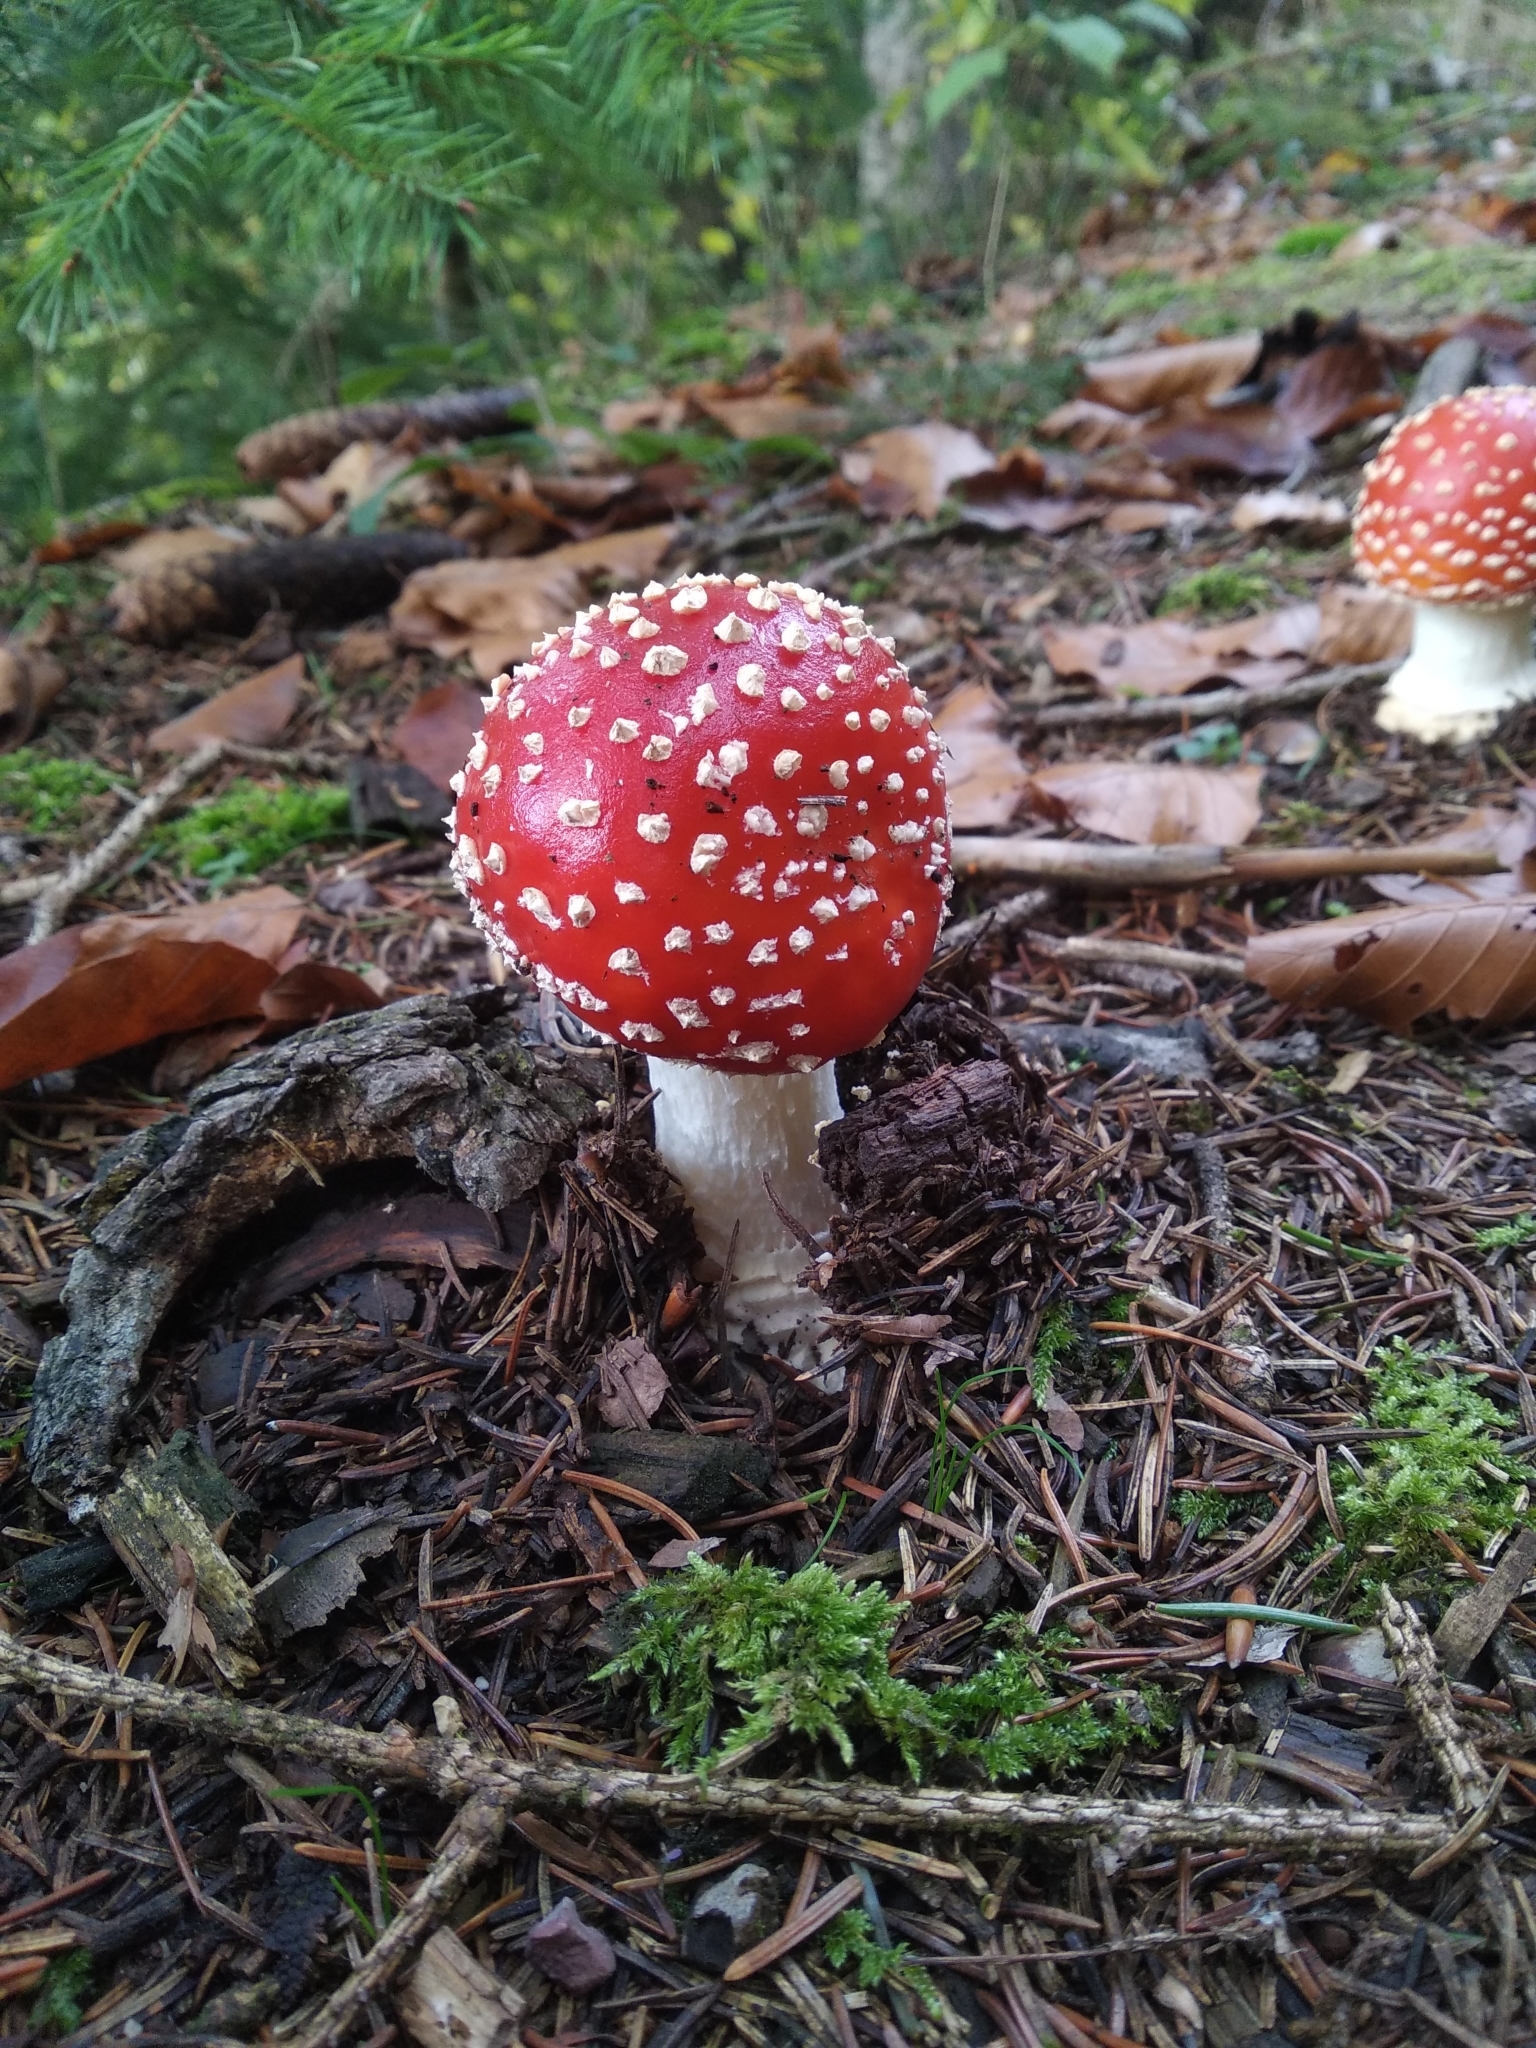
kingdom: Fungi
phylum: Basidiomycota
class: Agaricomycetes
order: Agaricales
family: Amanitaceae
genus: Amanita
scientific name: Amanita muscaria
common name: Fly agaric
